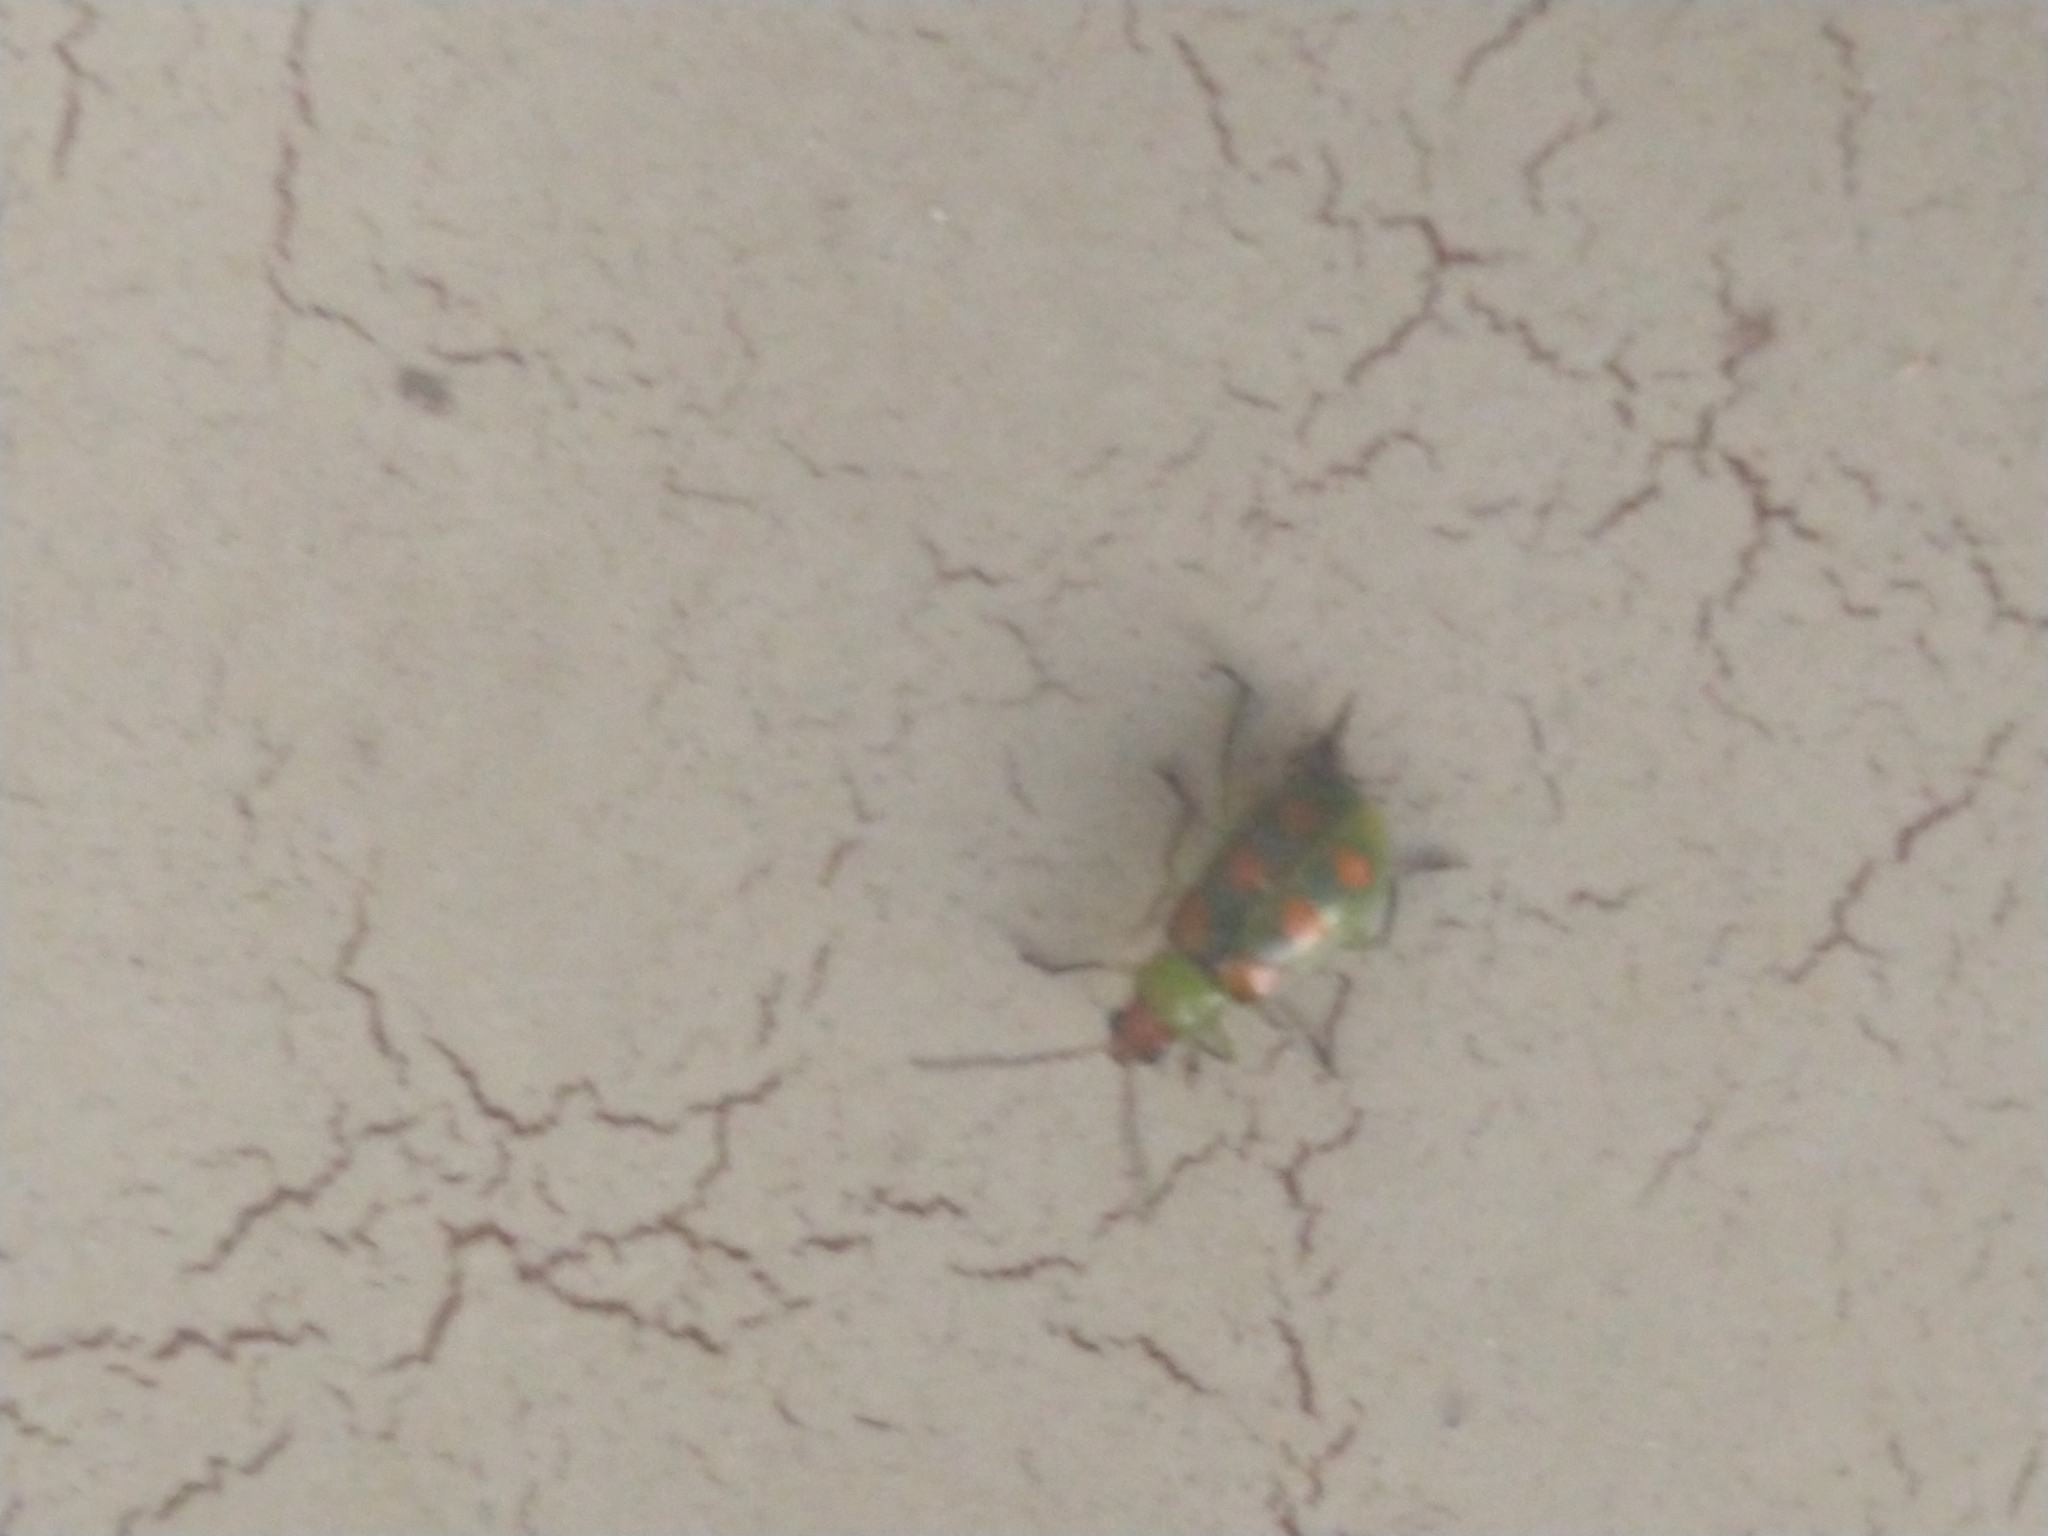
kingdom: Animalia
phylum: Arthropoda
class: Insecta
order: Coleoptera
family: Chrysomelidae
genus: Diabrotica
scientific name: Diabrotica speciosa
